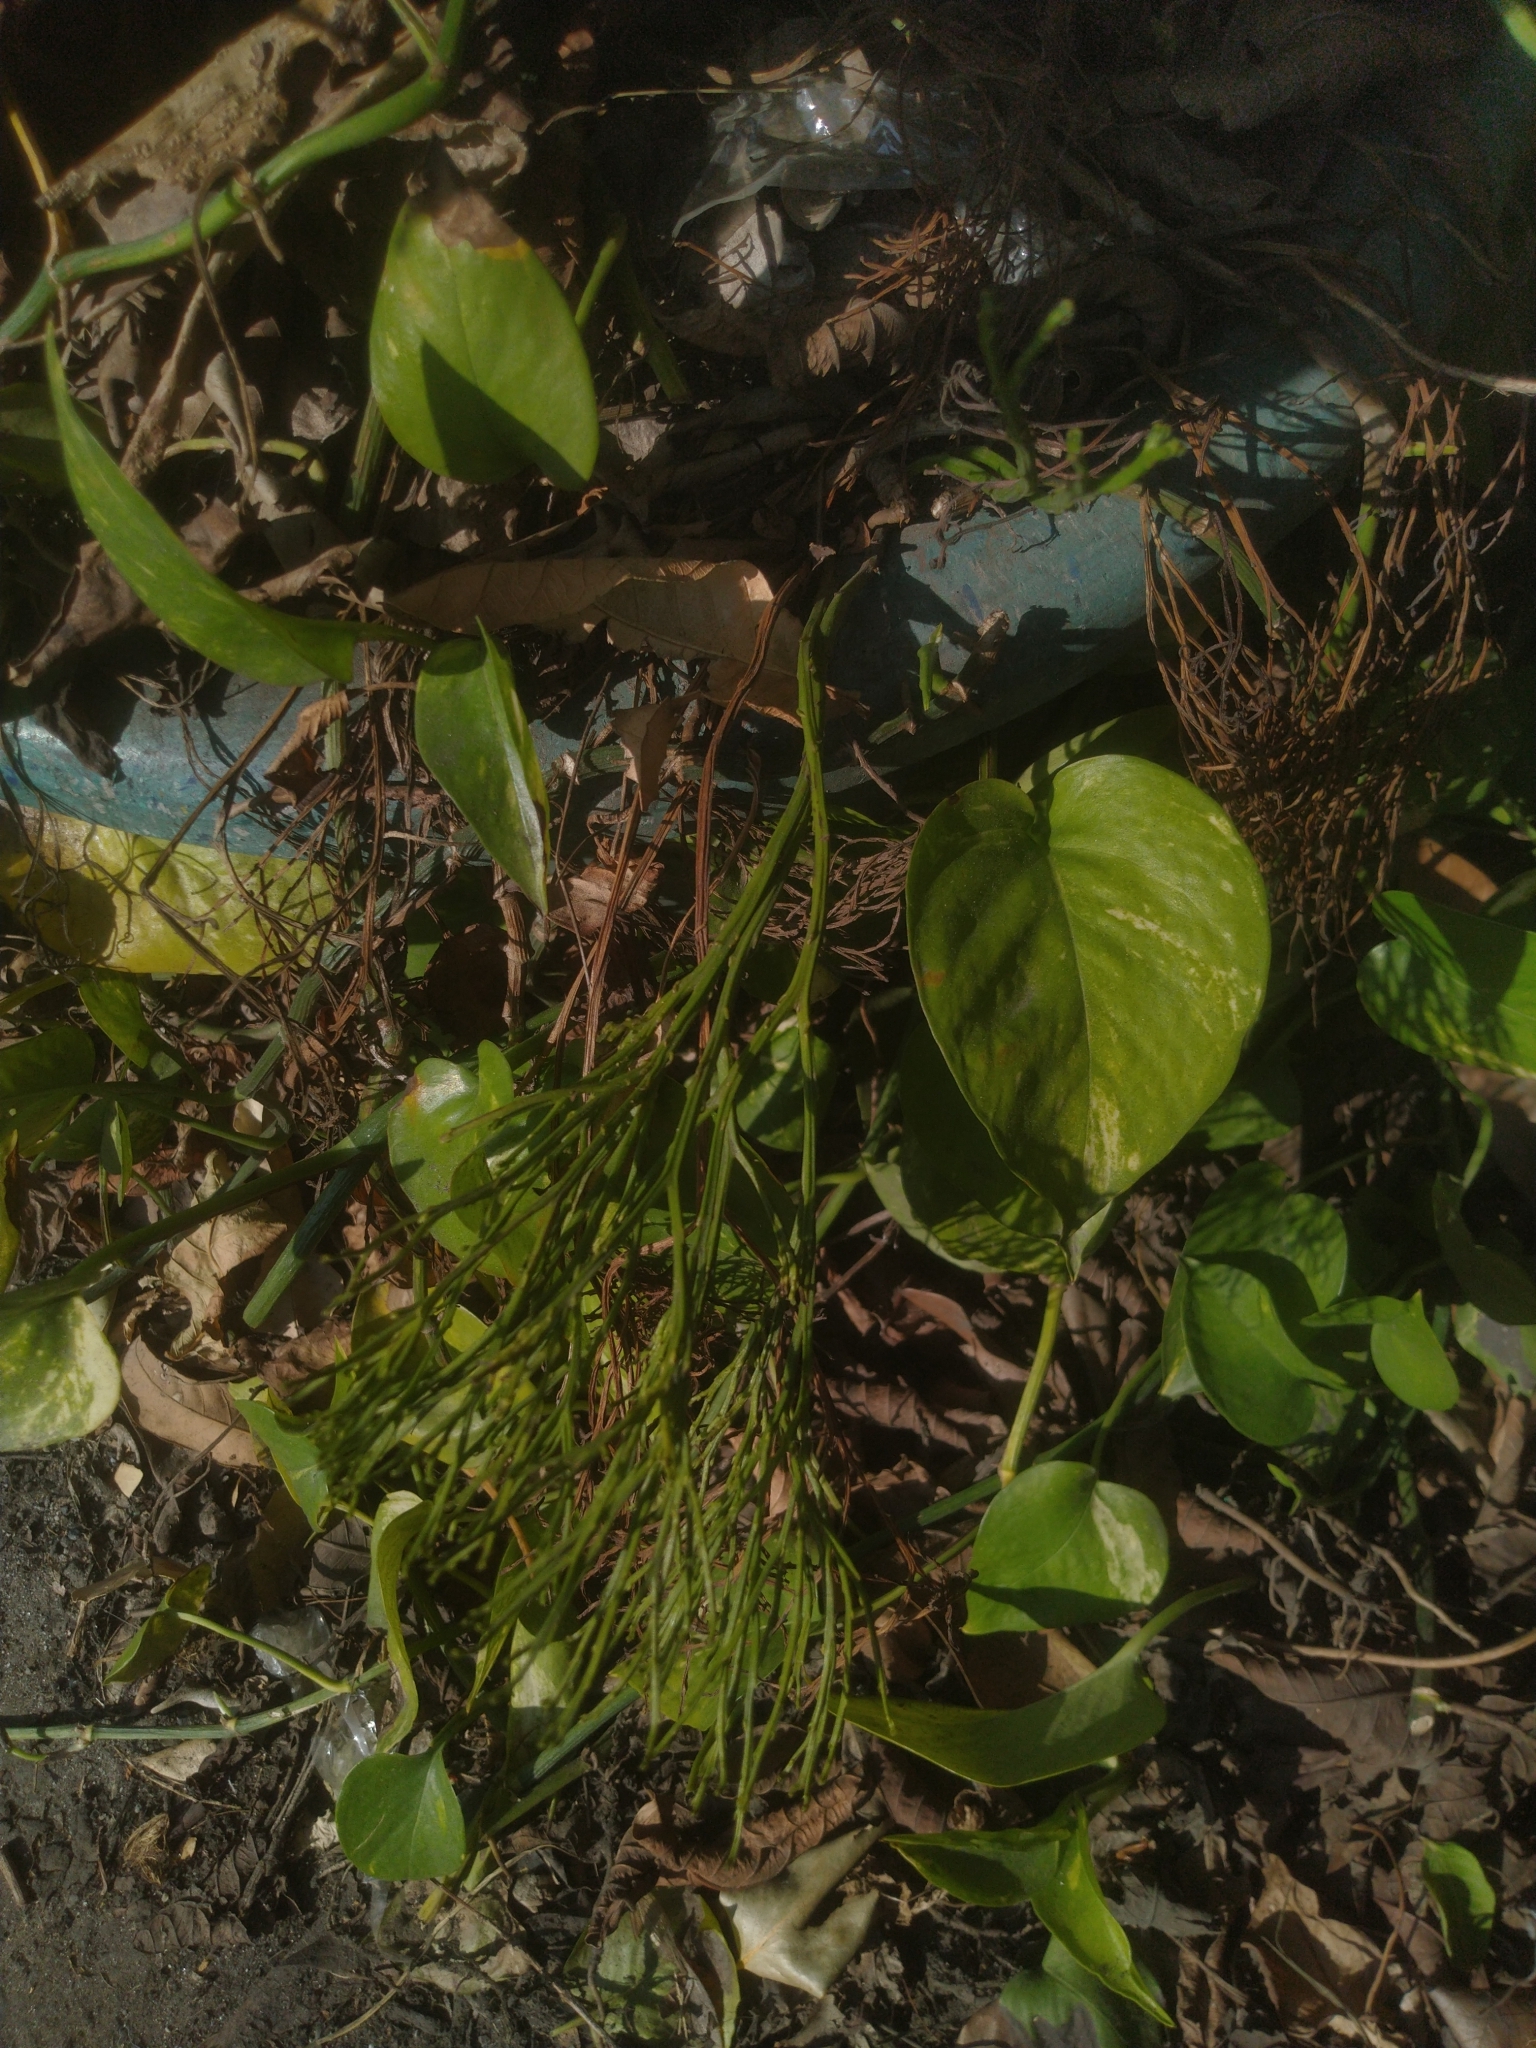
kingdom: Plantae
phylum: Tracheophyta
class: Polypodiopsida
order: Psilotales
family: Psilotaceae
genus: Psilotum
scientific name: Psilotum nudum
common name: Skeleton fork fern
